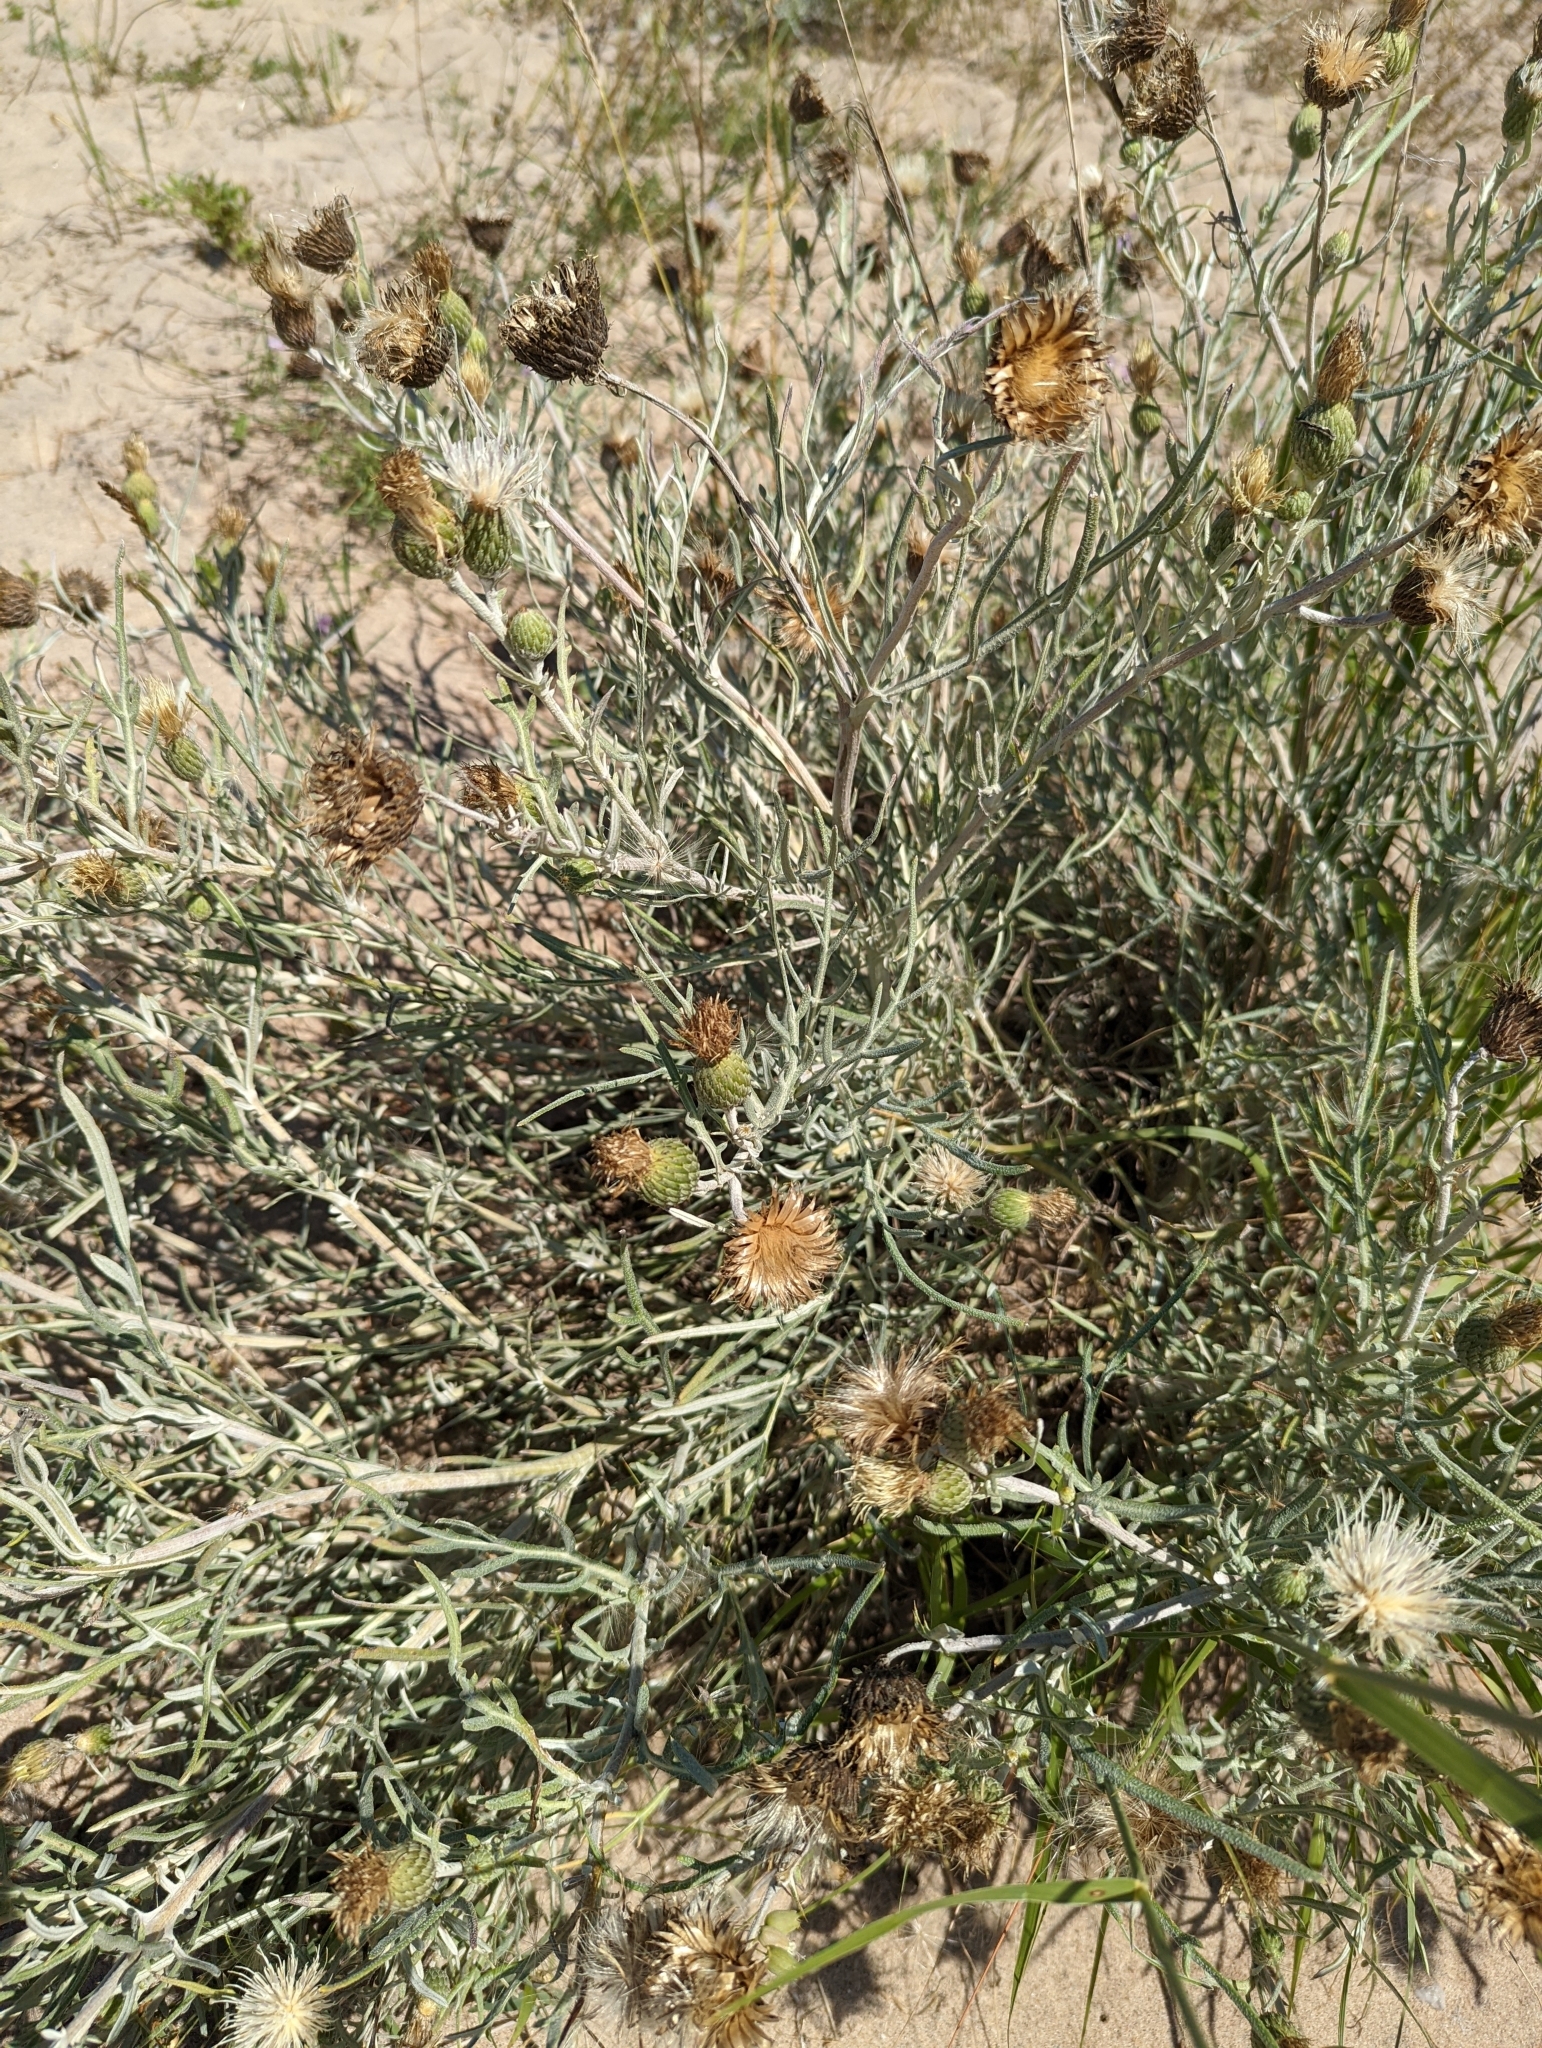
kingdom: Plantae
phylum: Tracheophyta
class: Magnoliopsida
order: Asterales
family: Asteraceae
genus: Cirsium
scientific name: Cirsium pitcheri
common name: Dune thistle
